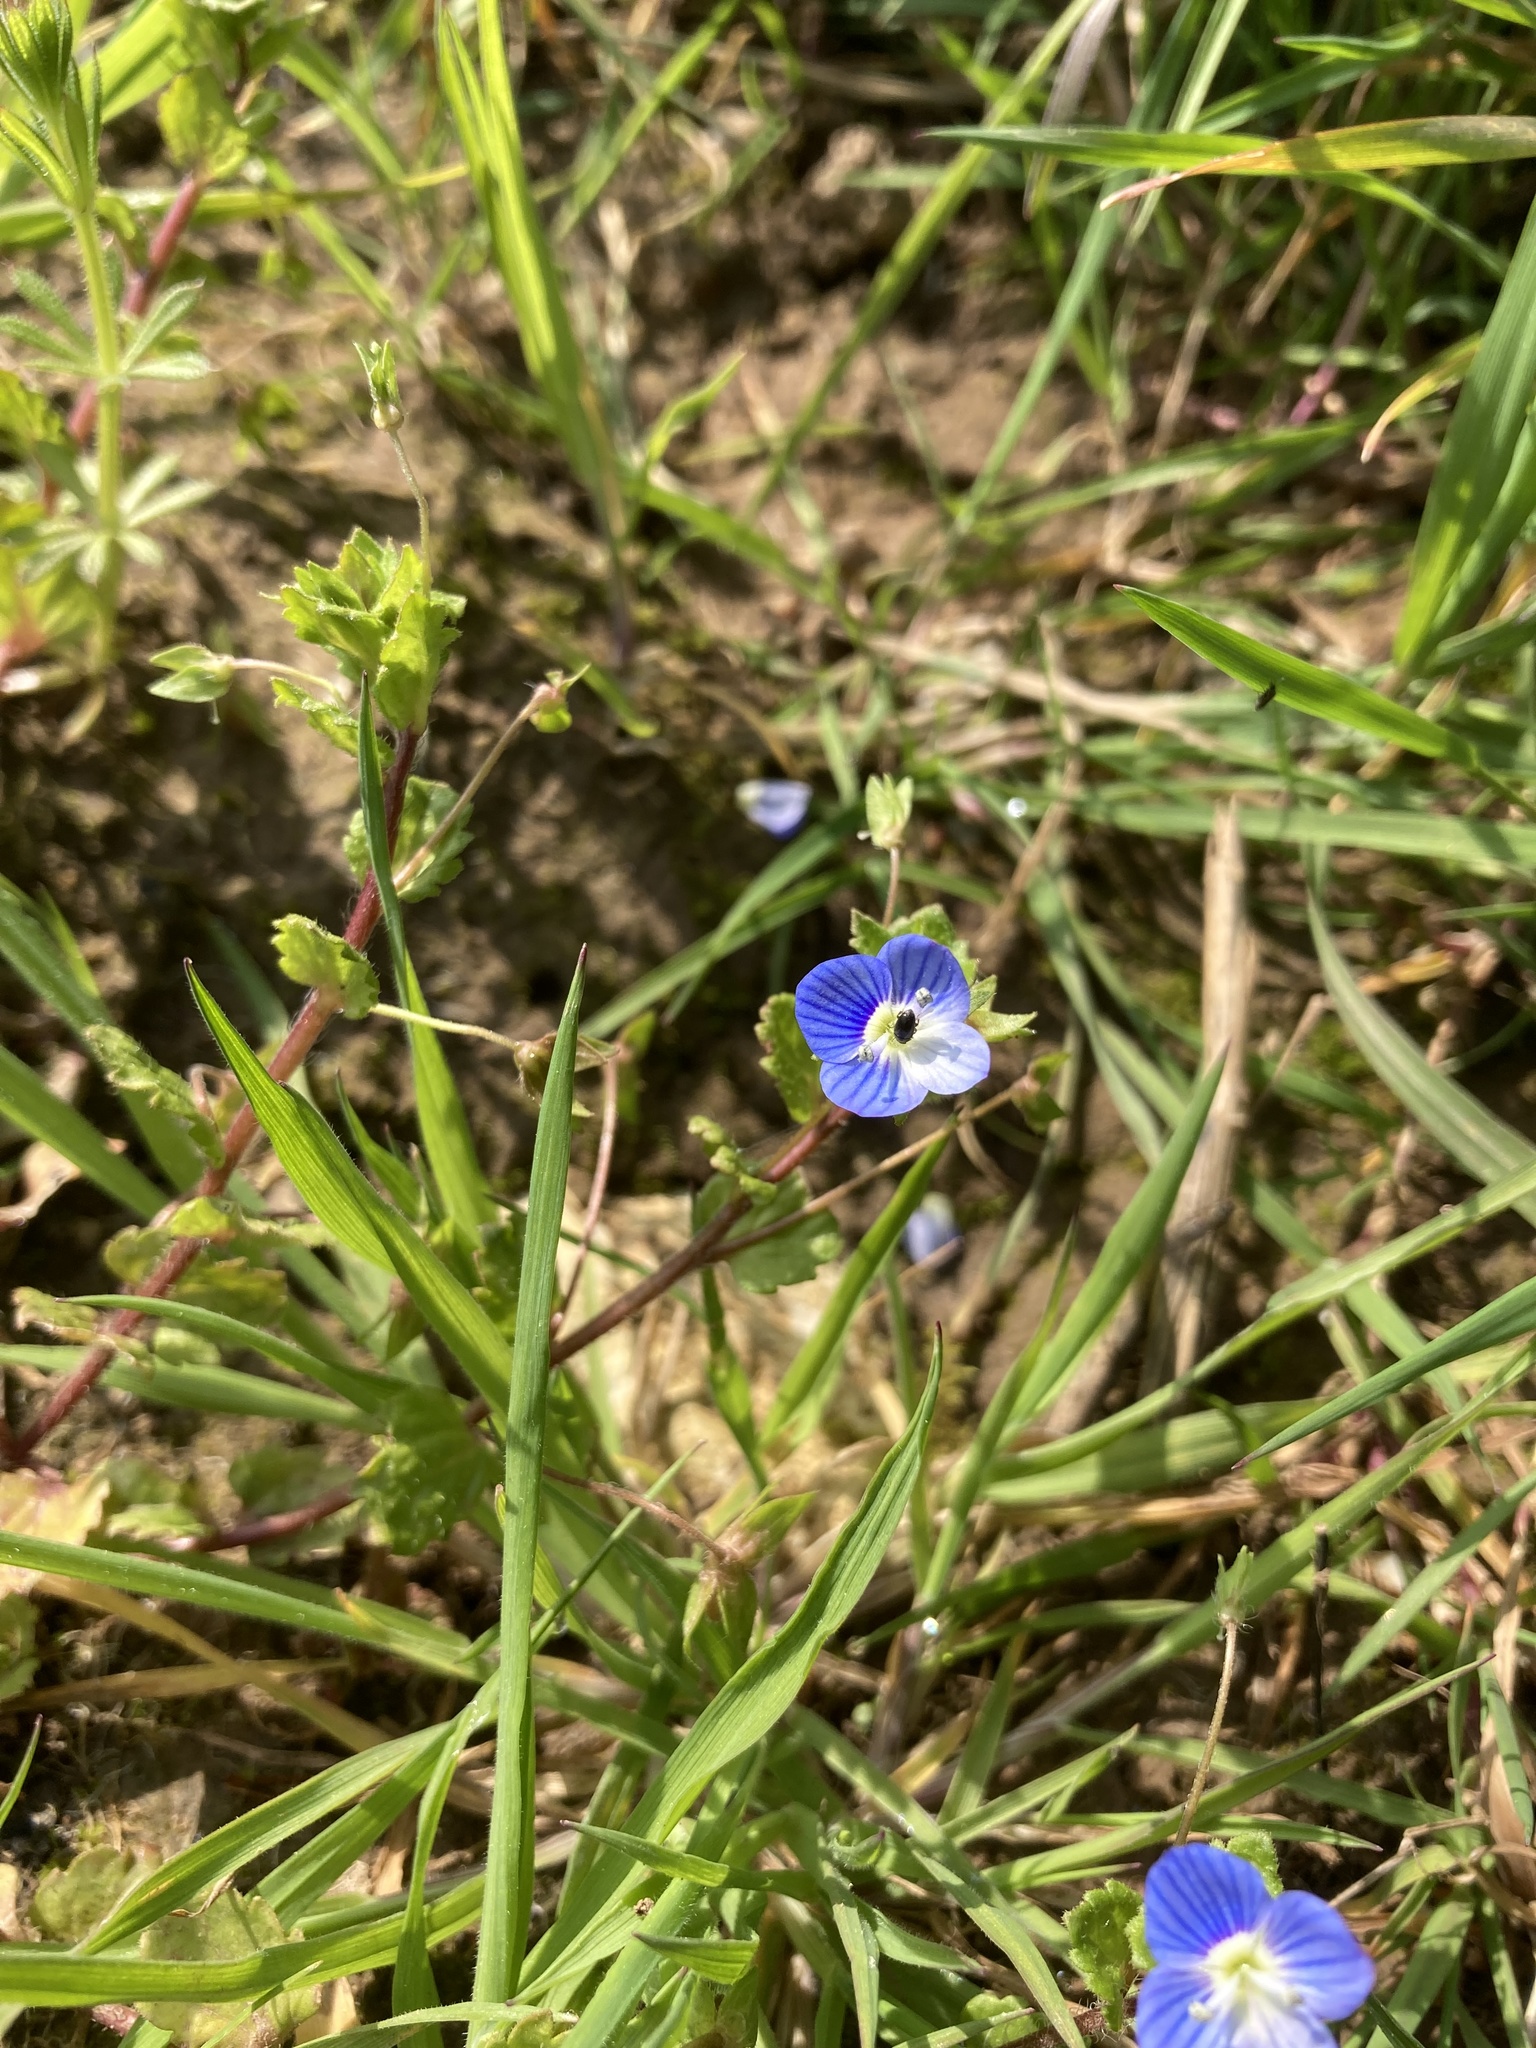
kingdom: Plantae
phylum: Tracheophyta
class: Magnoliopsida
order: Lamiales
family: Plantaginaceae
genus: Veronica
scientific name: Veronica persica
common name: Common field-speedwell
